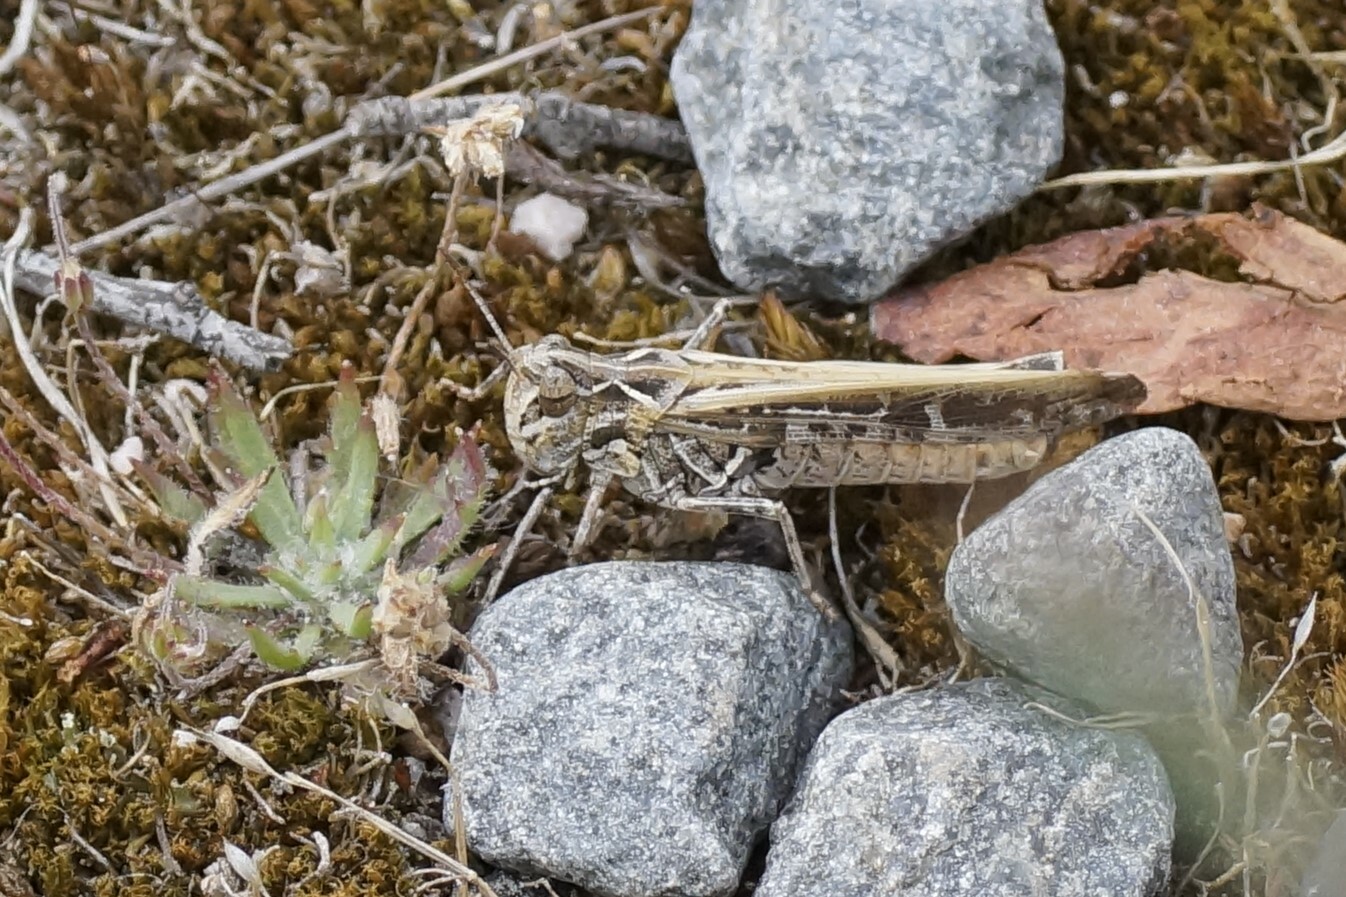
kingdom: Animalia
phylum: Arthropoda
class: Insecta
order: Orthoptera
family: Acrididae
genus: Austroicetes
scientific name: Austroicetes vulgaris
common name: Southeastern austroicetes
